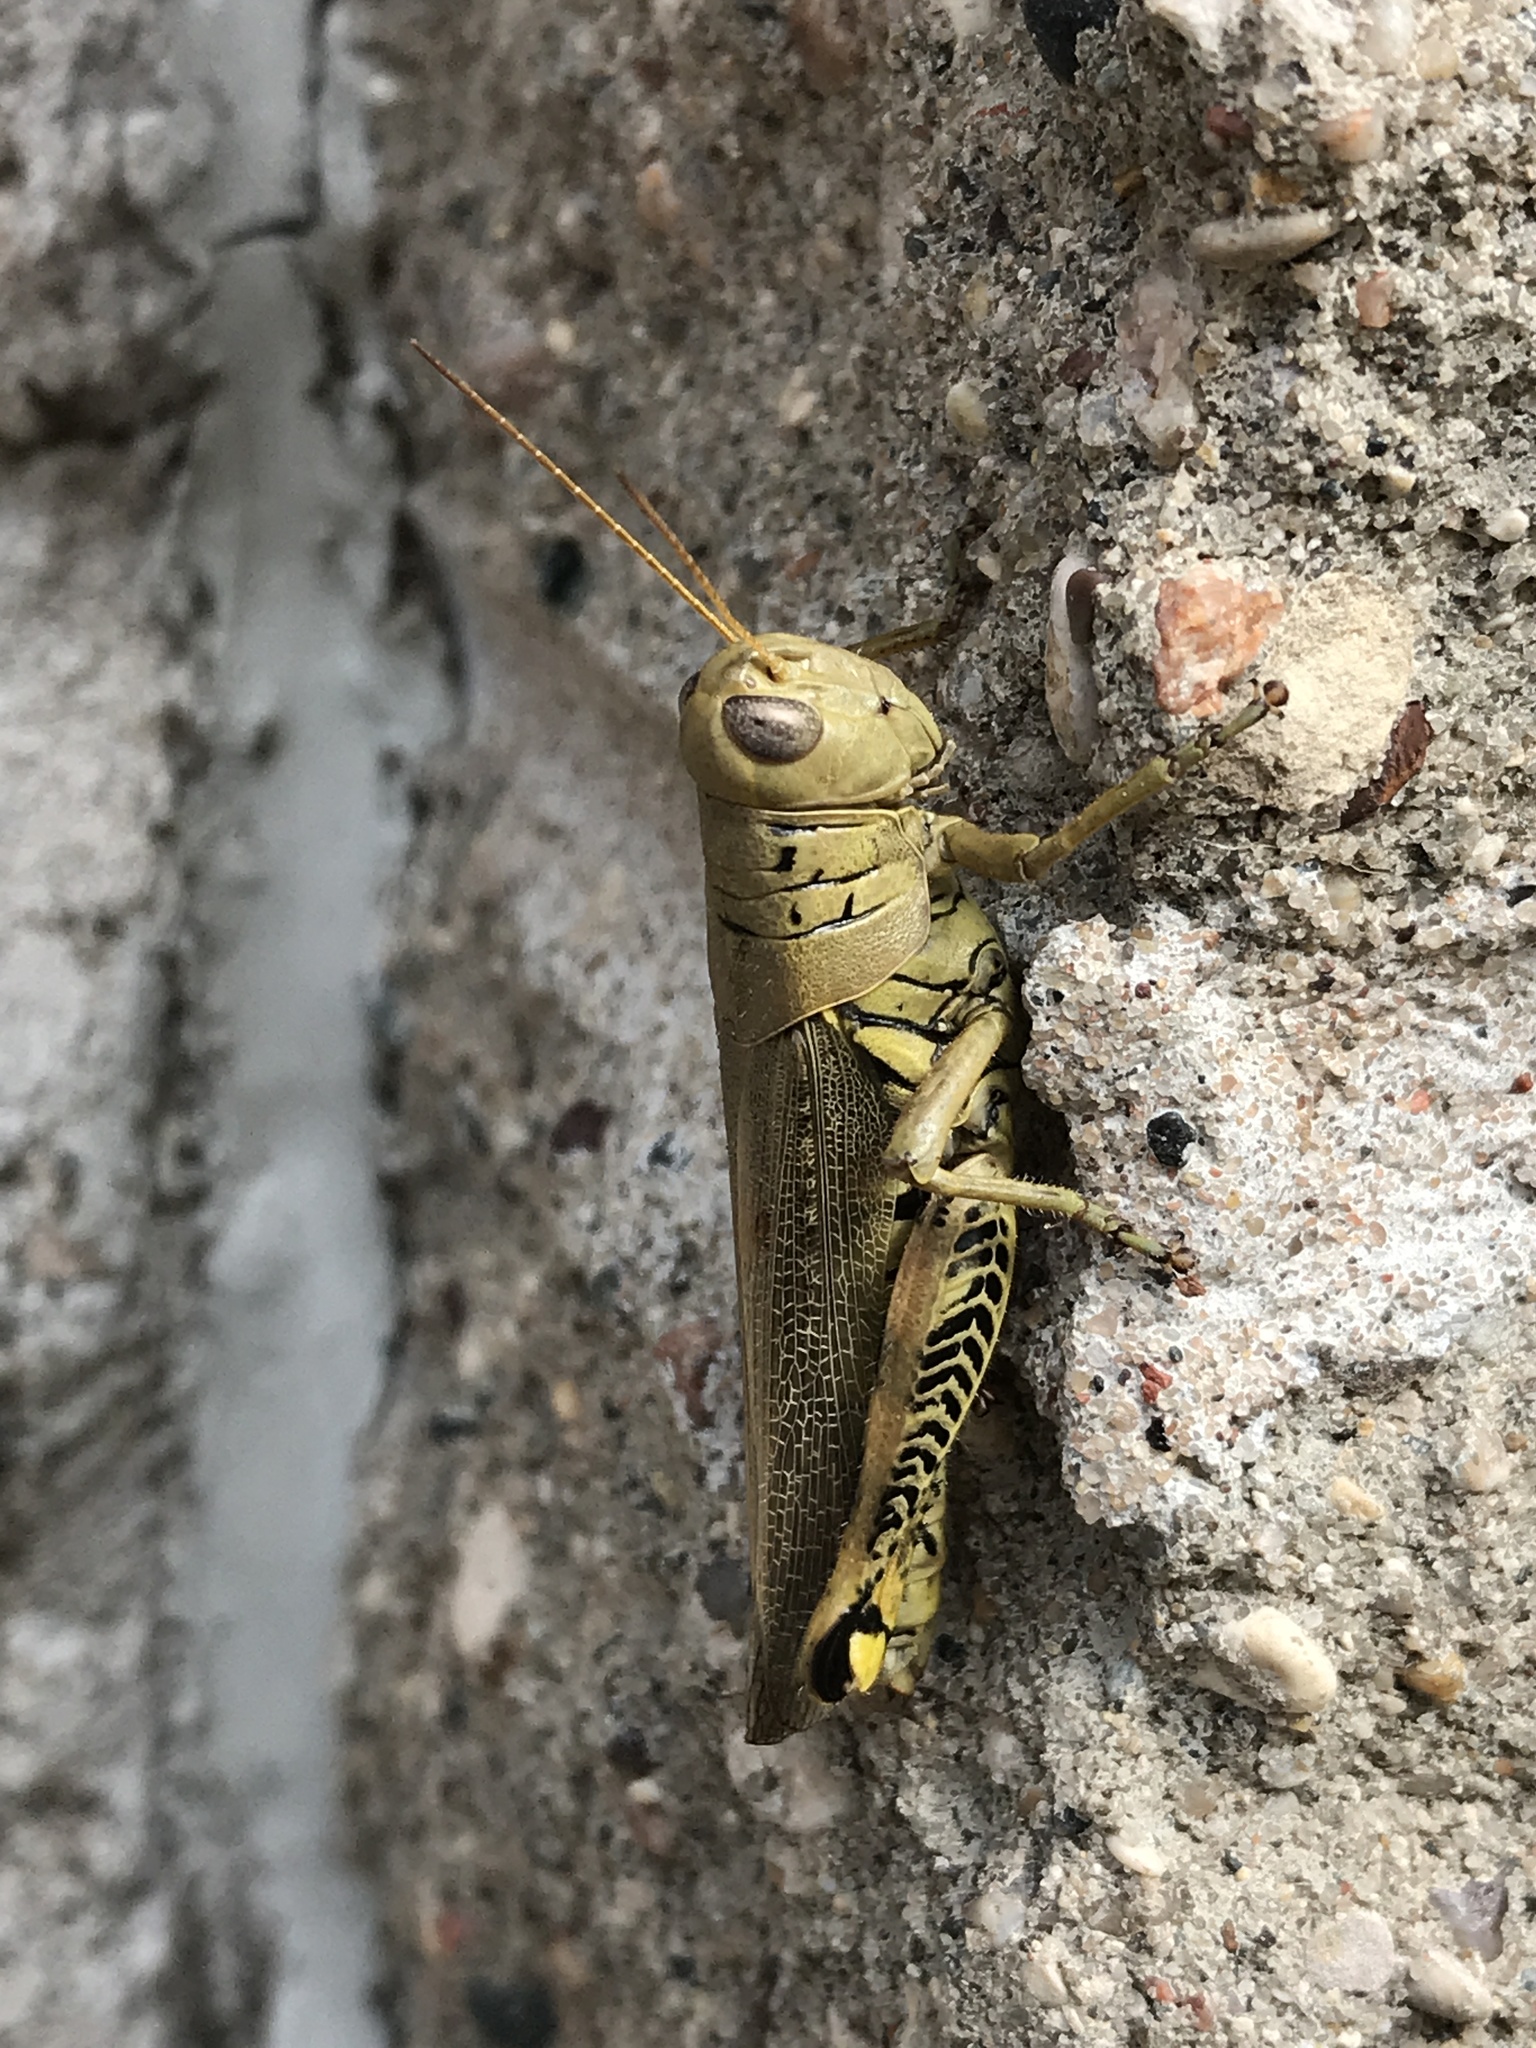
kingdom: Animalia
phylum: Arthropoda
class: Insecta
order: Orthoptera
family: Acrididae
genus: Melanoplus
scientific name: Melanoplus differentialis
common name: Differential grasshopper
